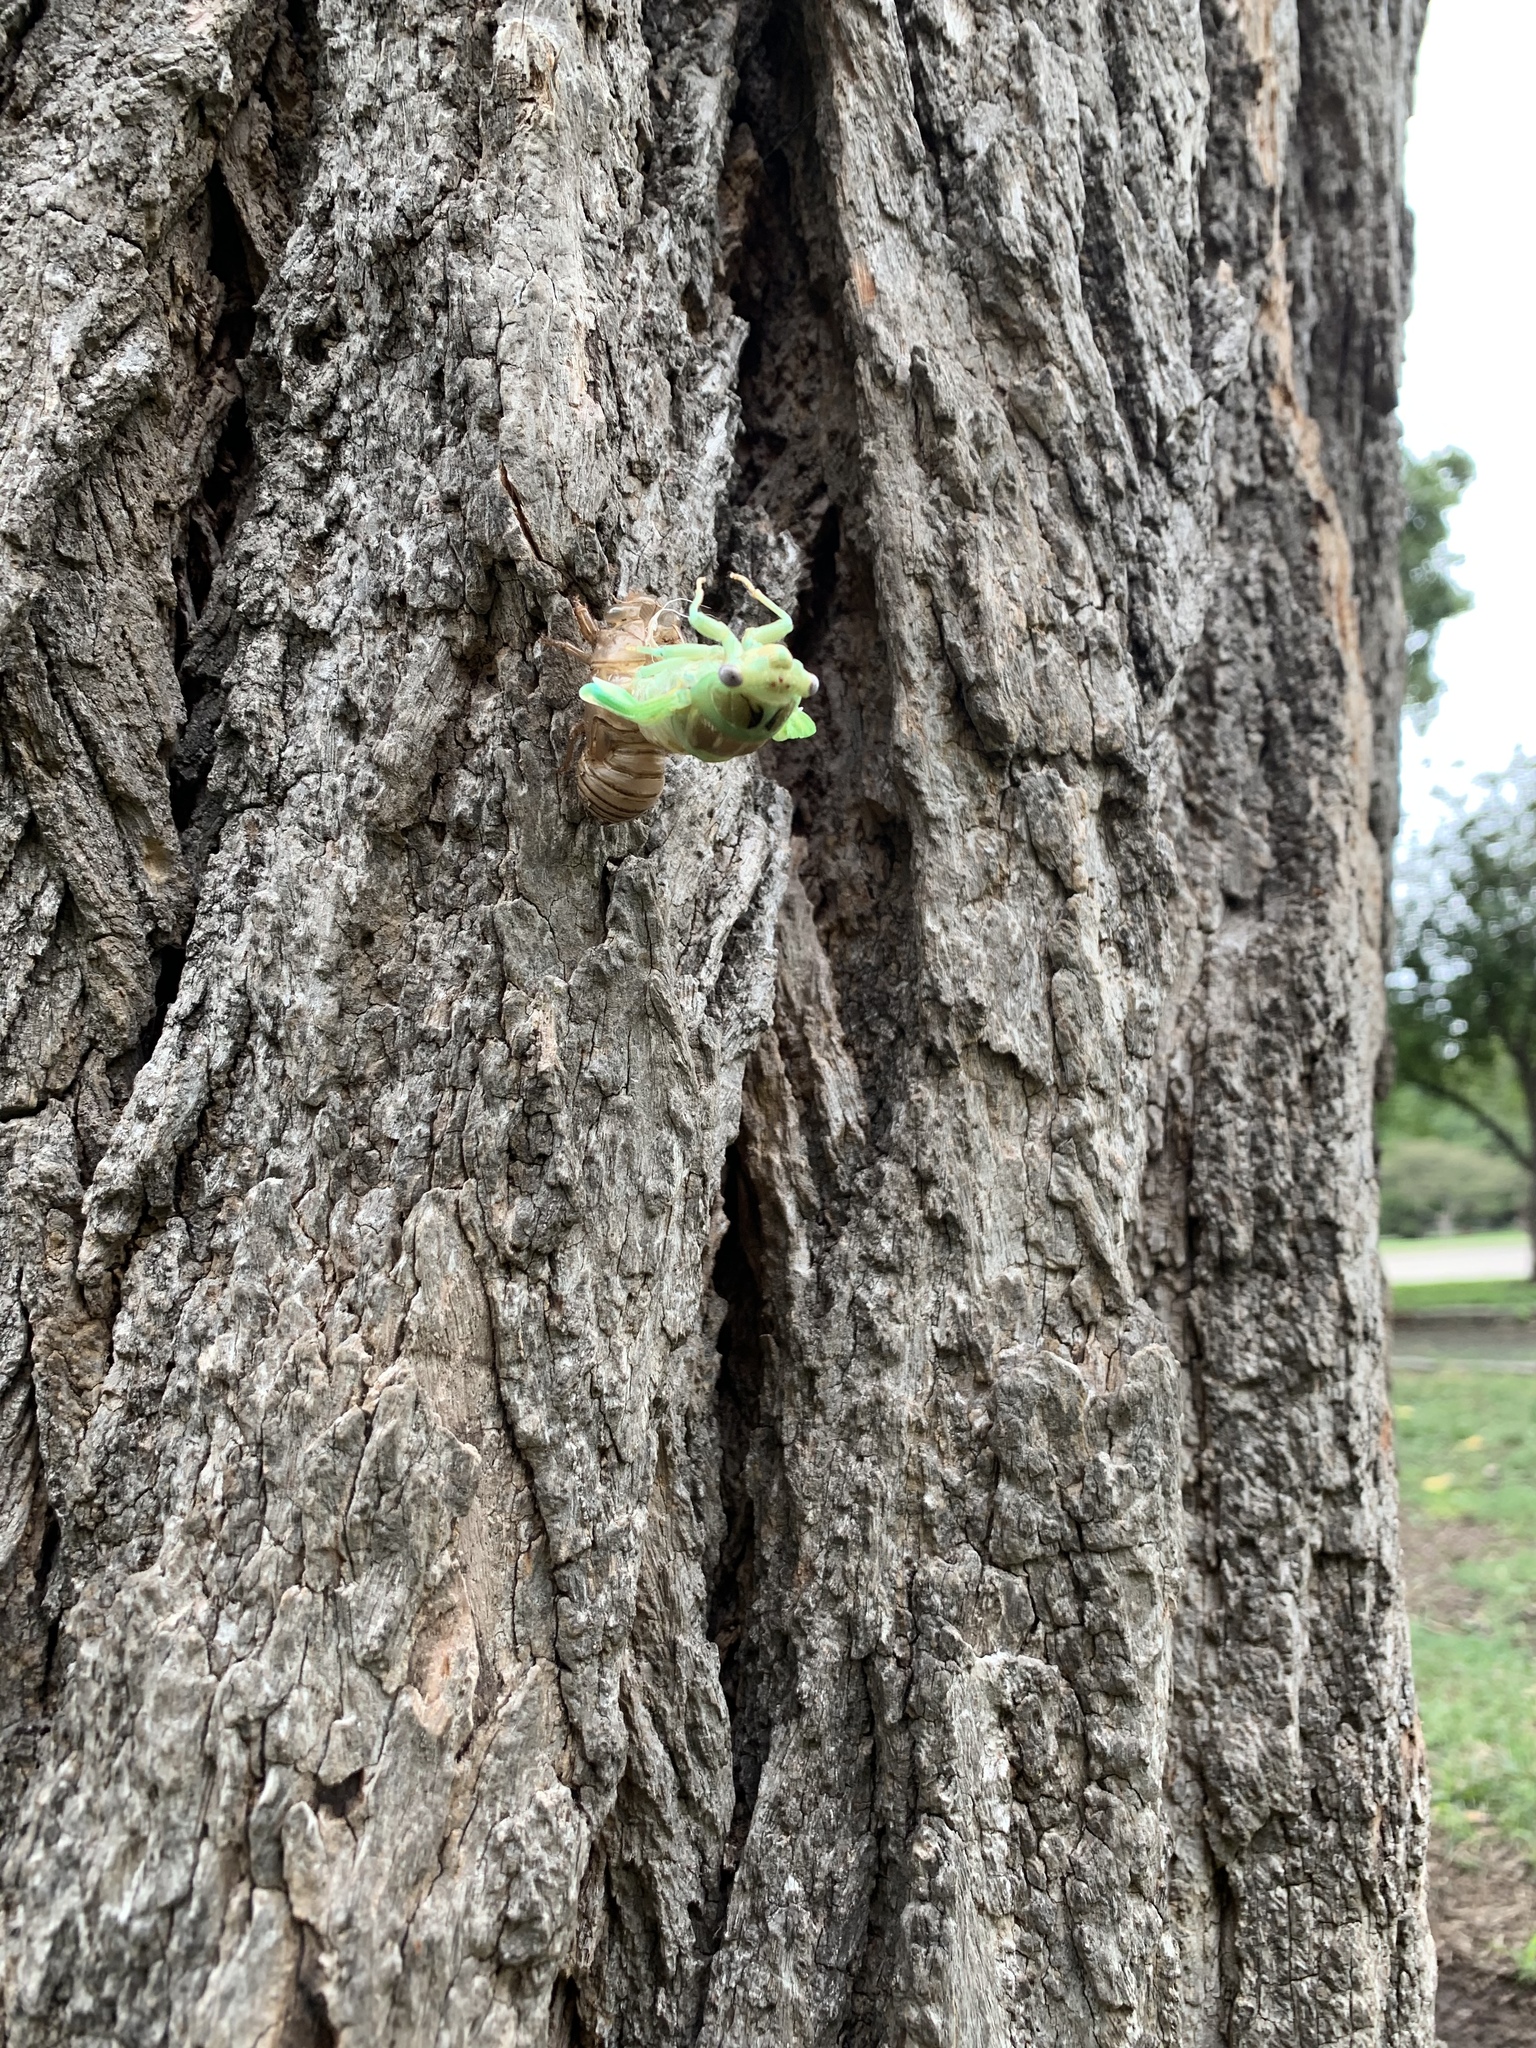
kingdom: Animalia
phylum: Arthropoda
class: Insecta
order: Hemiptera
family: Cicadidae
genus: Megatibicen
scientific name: Megatibicen dealbatus
